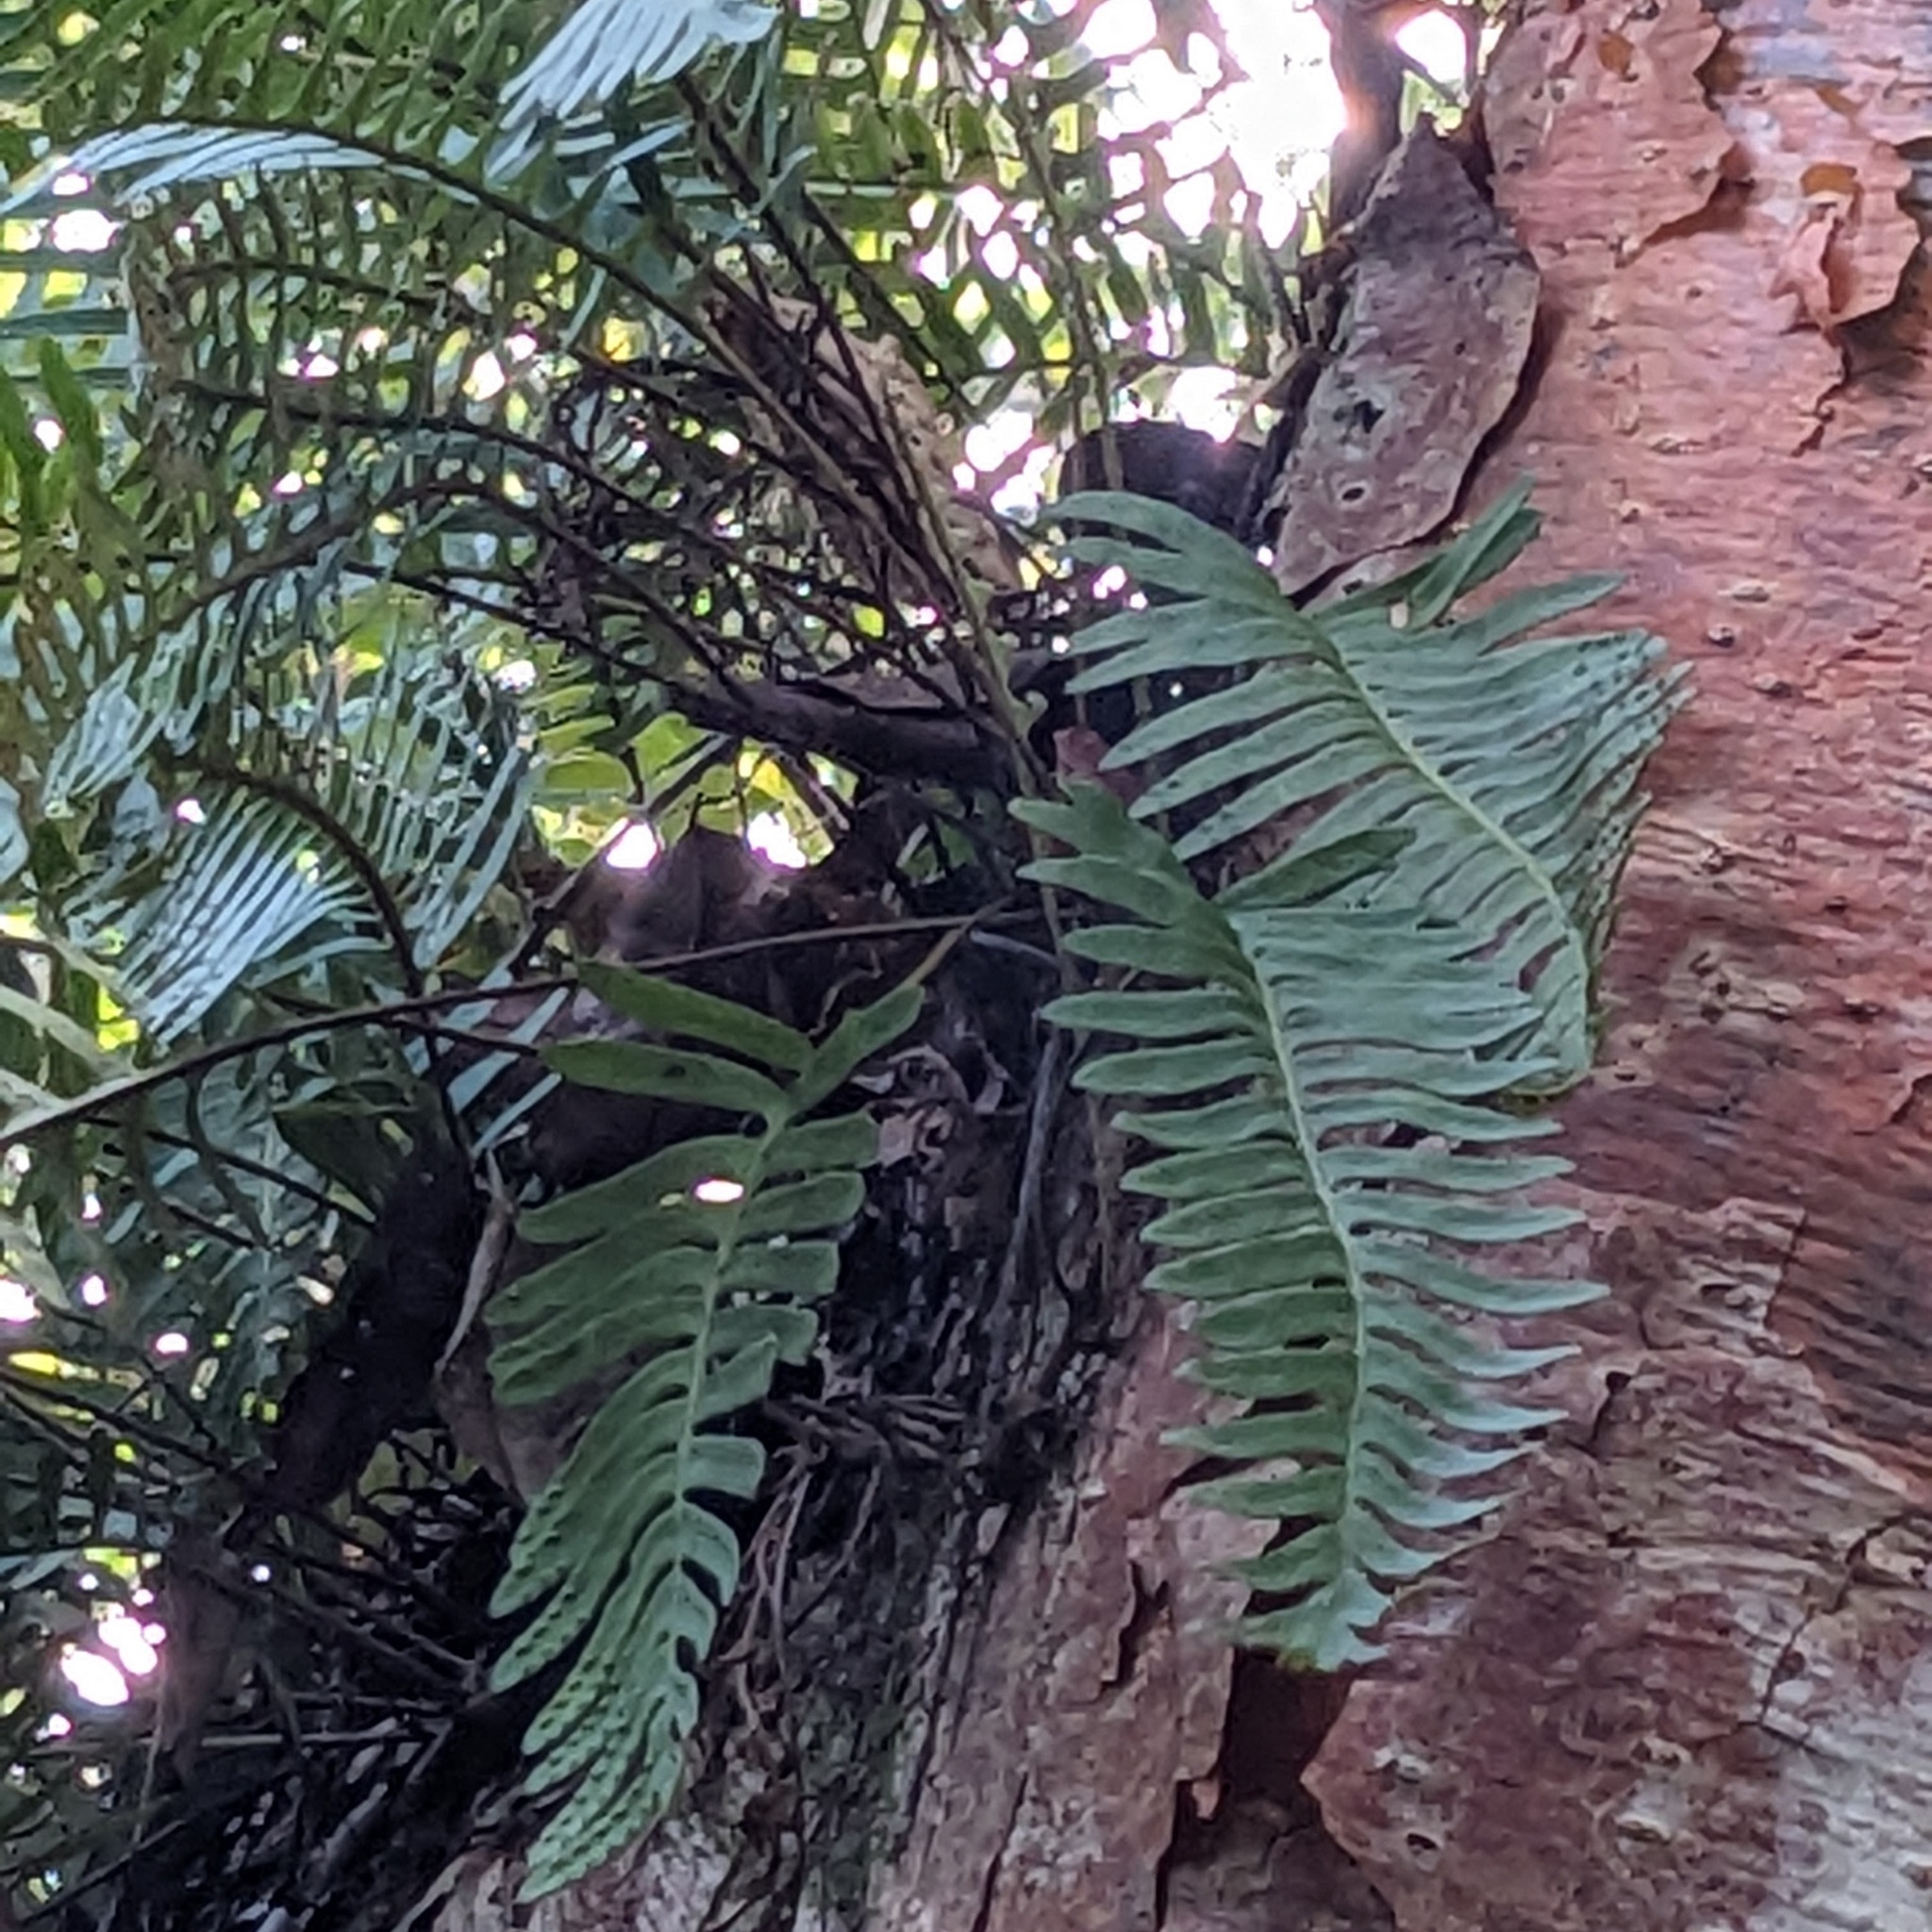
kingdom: Plantae
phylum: Tracheophyta
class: Polypodiopsida
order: Polypodiales
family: Polypodiaceae
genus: Pleopeltis
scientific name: Pleopeltis michauxiana
